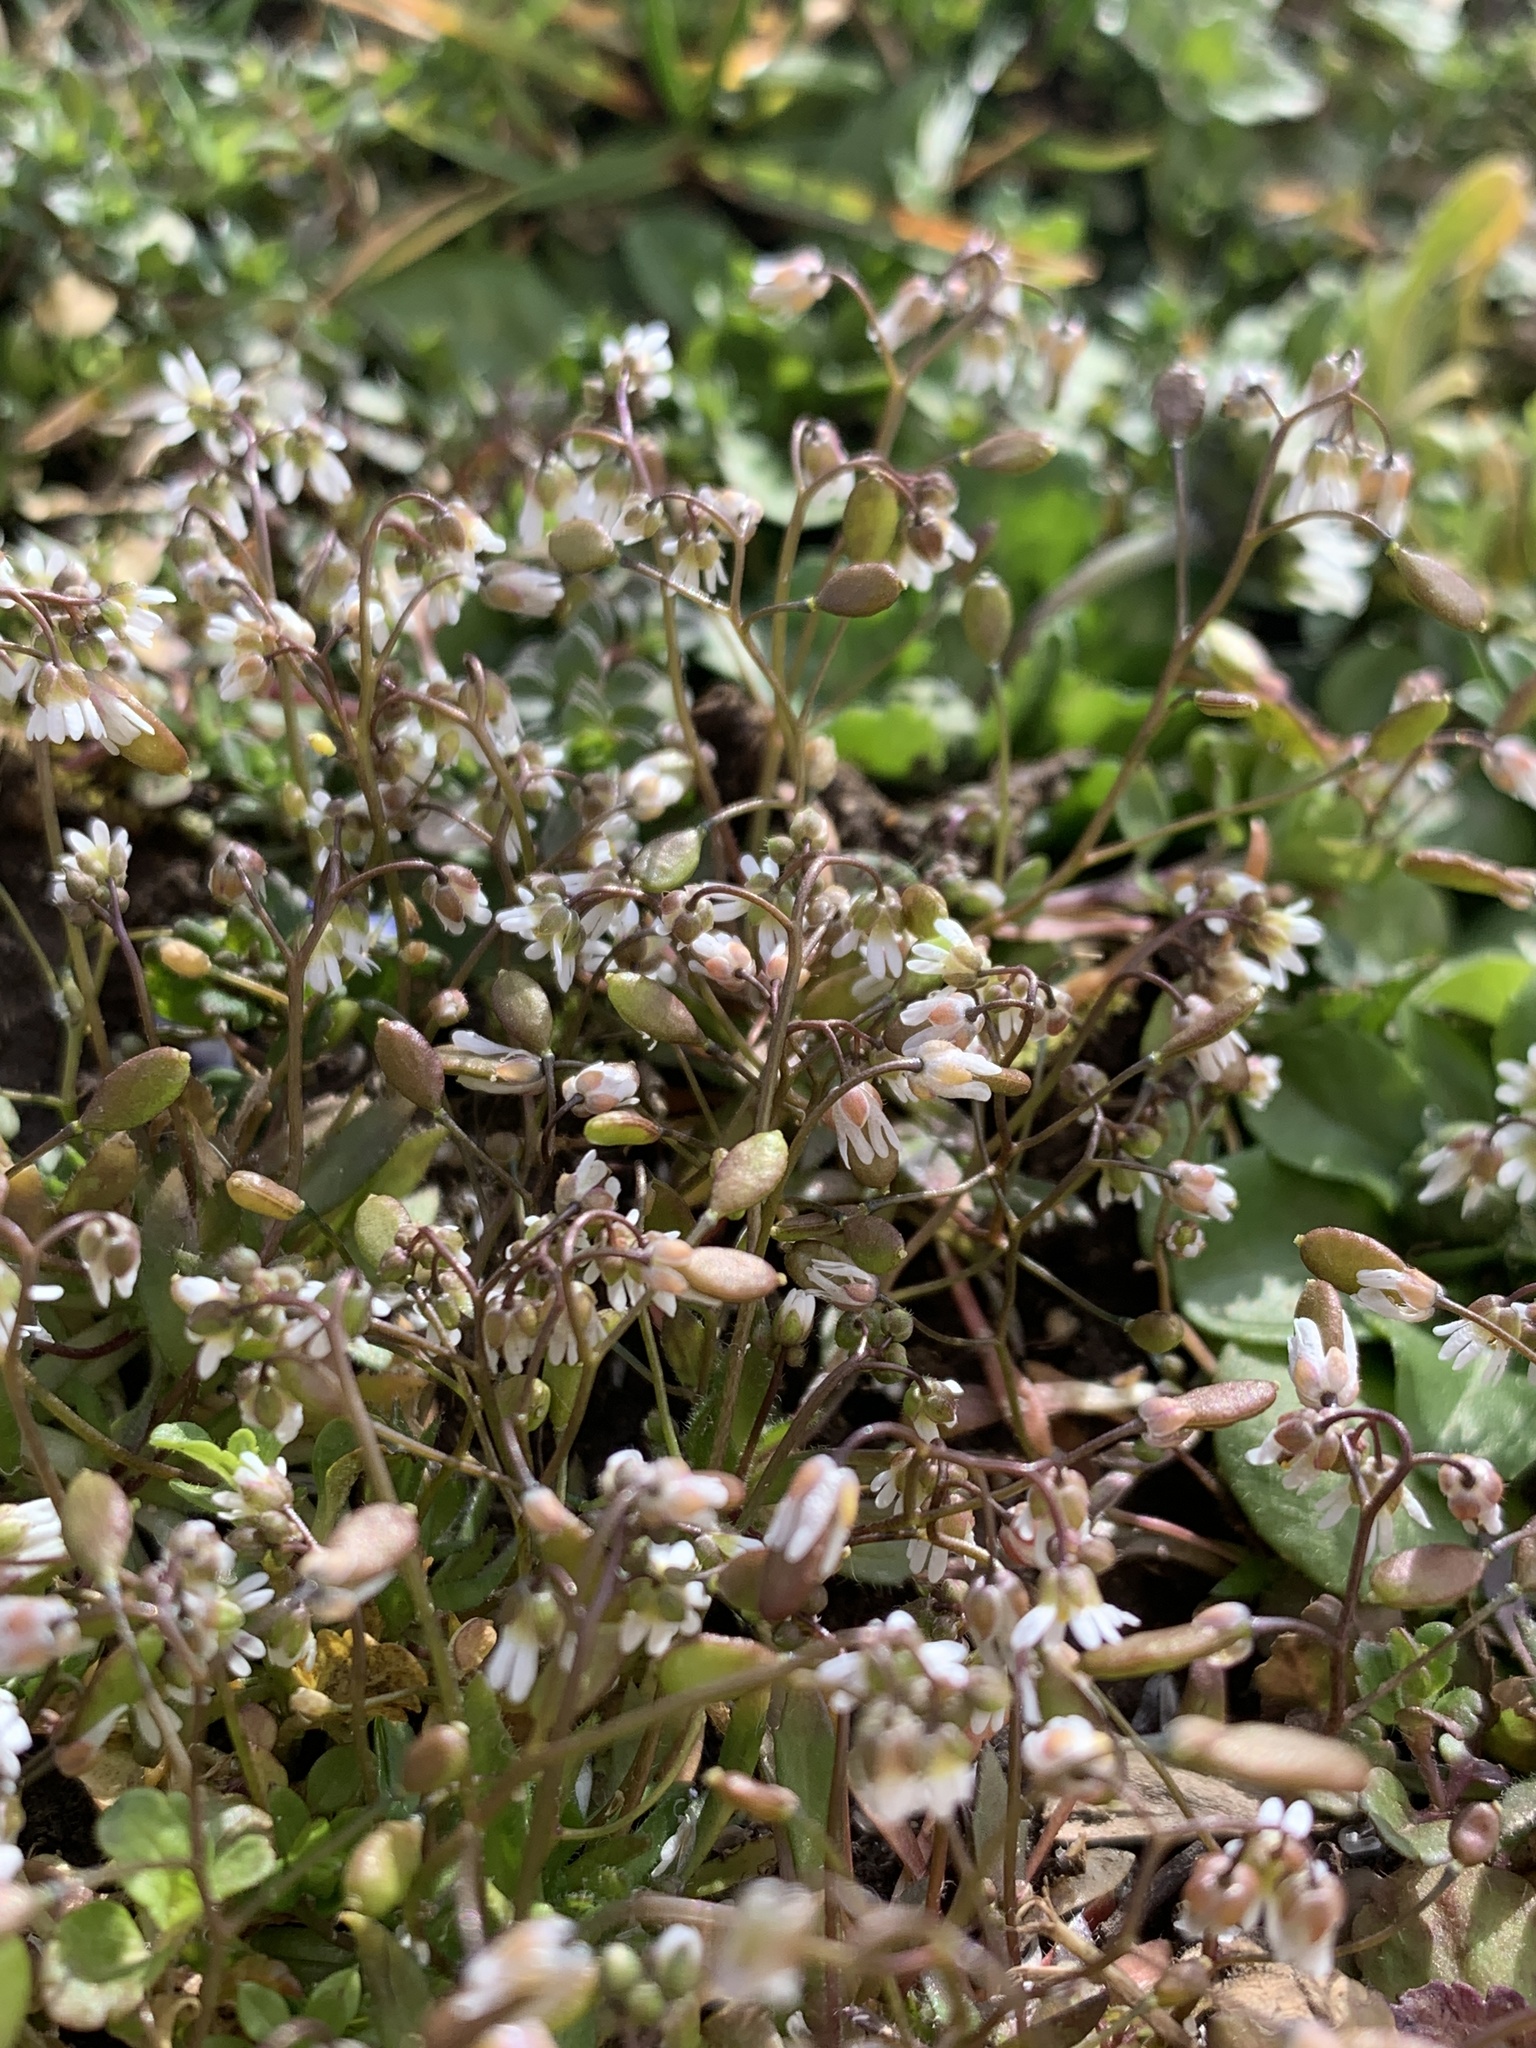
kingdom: Plantae
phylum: Tracheophyta
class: Magnoliopsida
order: Brassicales
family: Brassicaceae
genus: Draba
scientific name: Draba verna
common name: Spring draba
